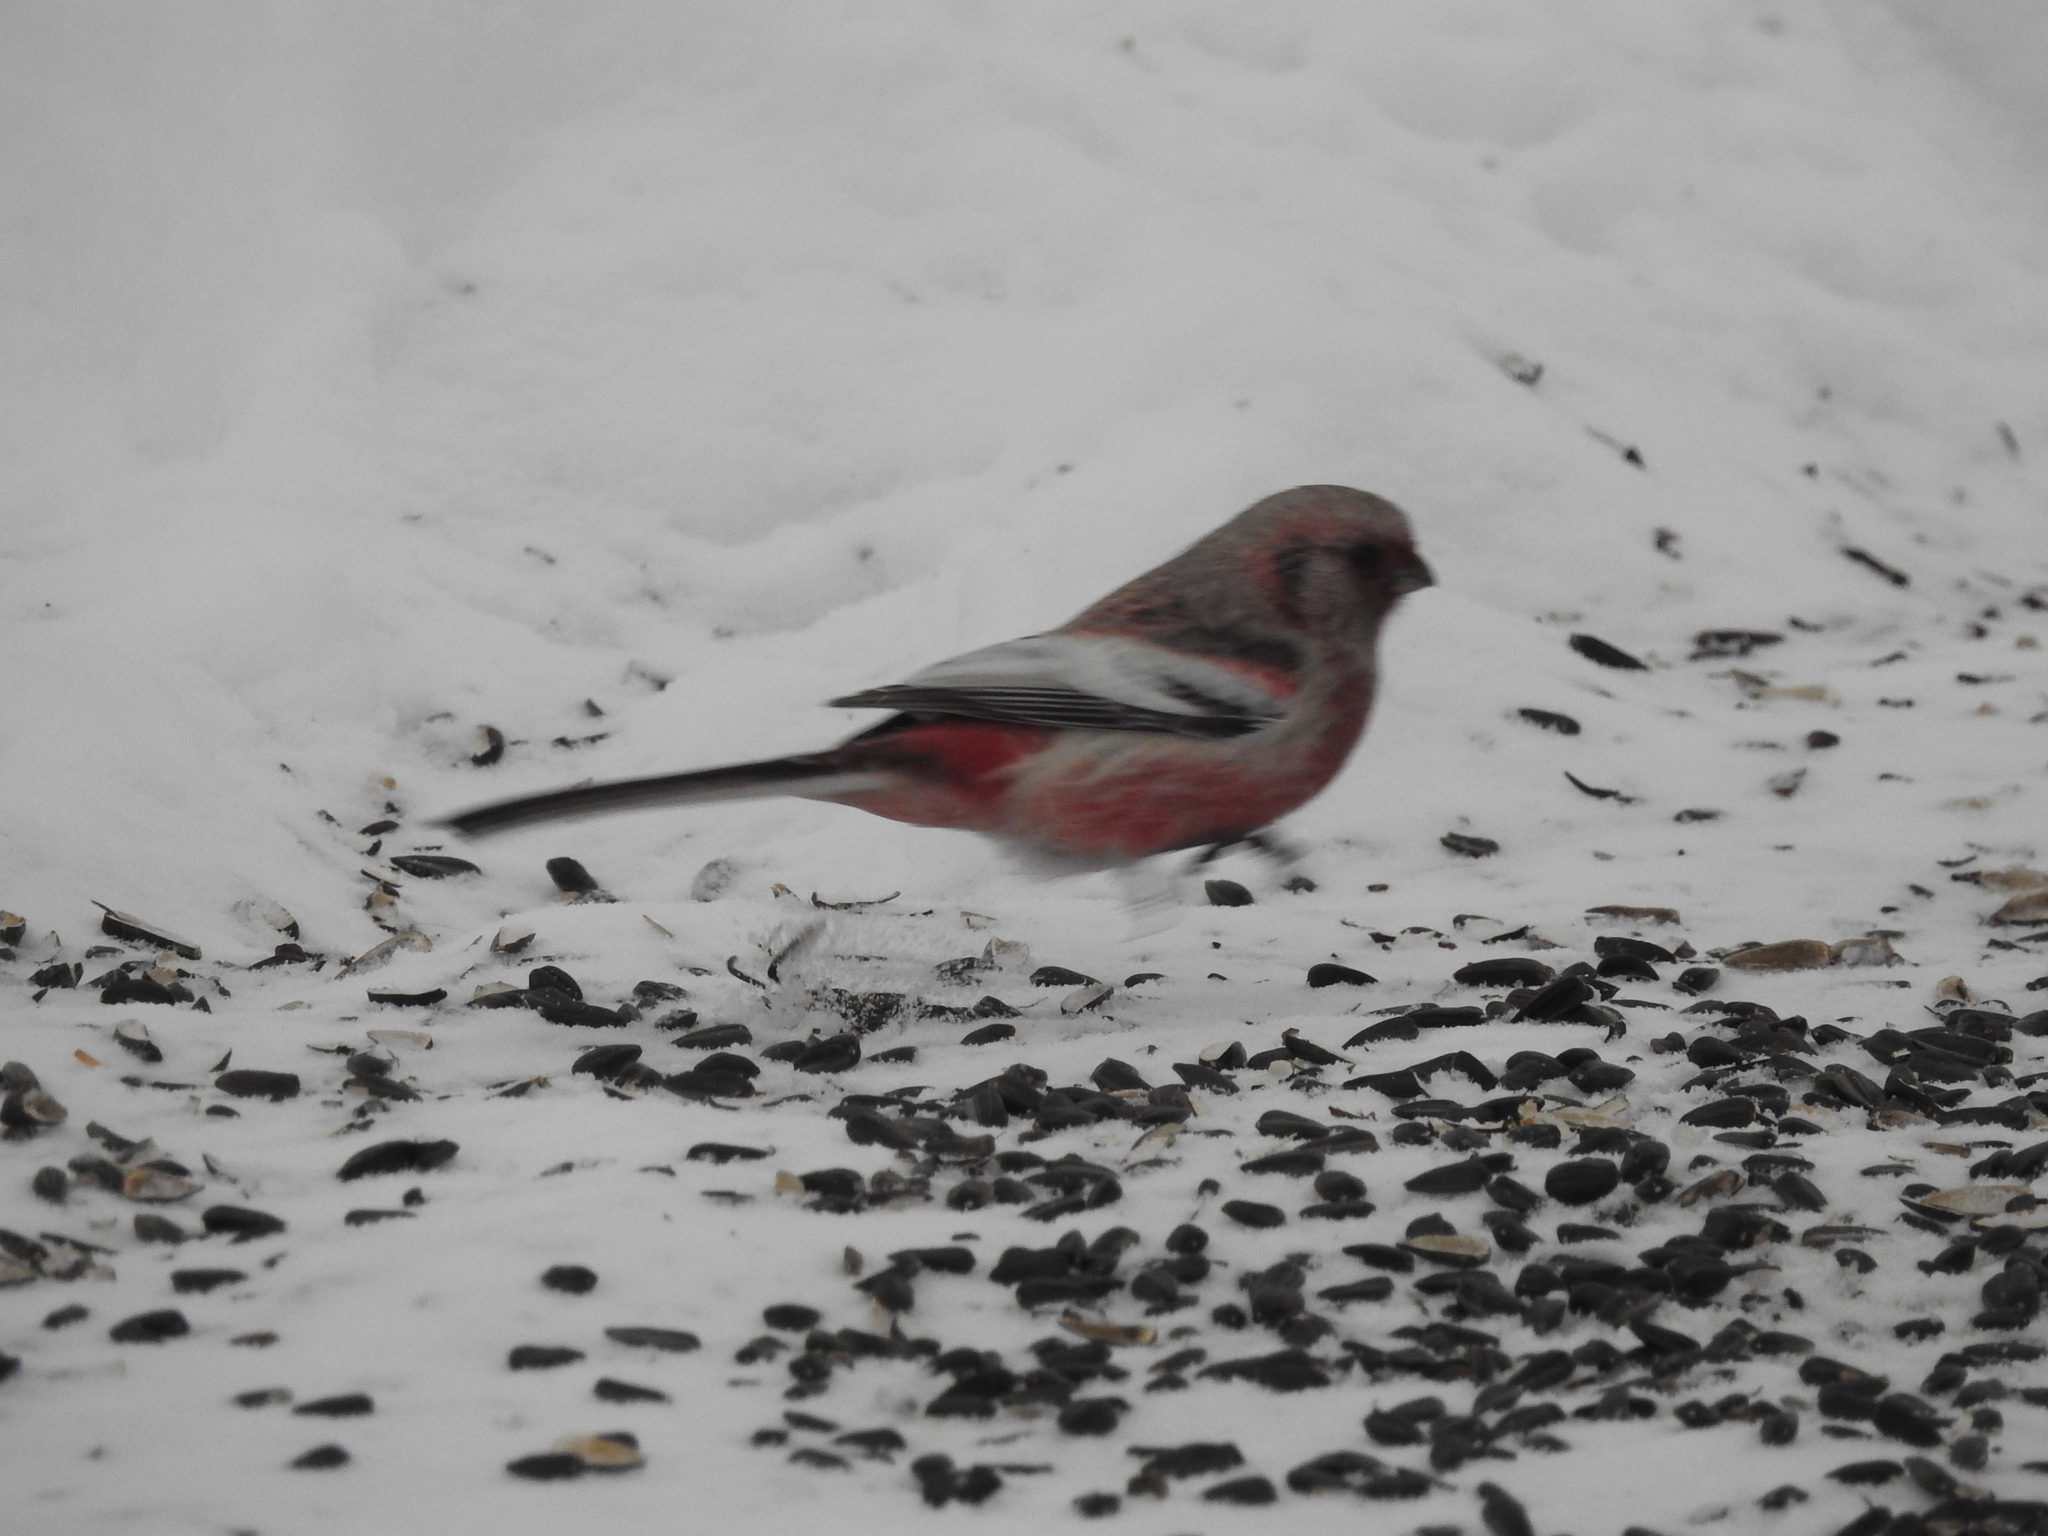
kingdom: Animalia
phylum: Chordata
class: Aves
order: Passeriformes
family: Fringillidae
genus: Carpodacus
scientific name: Carpodacus sibiricus
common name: Long-tailed rosefinch
